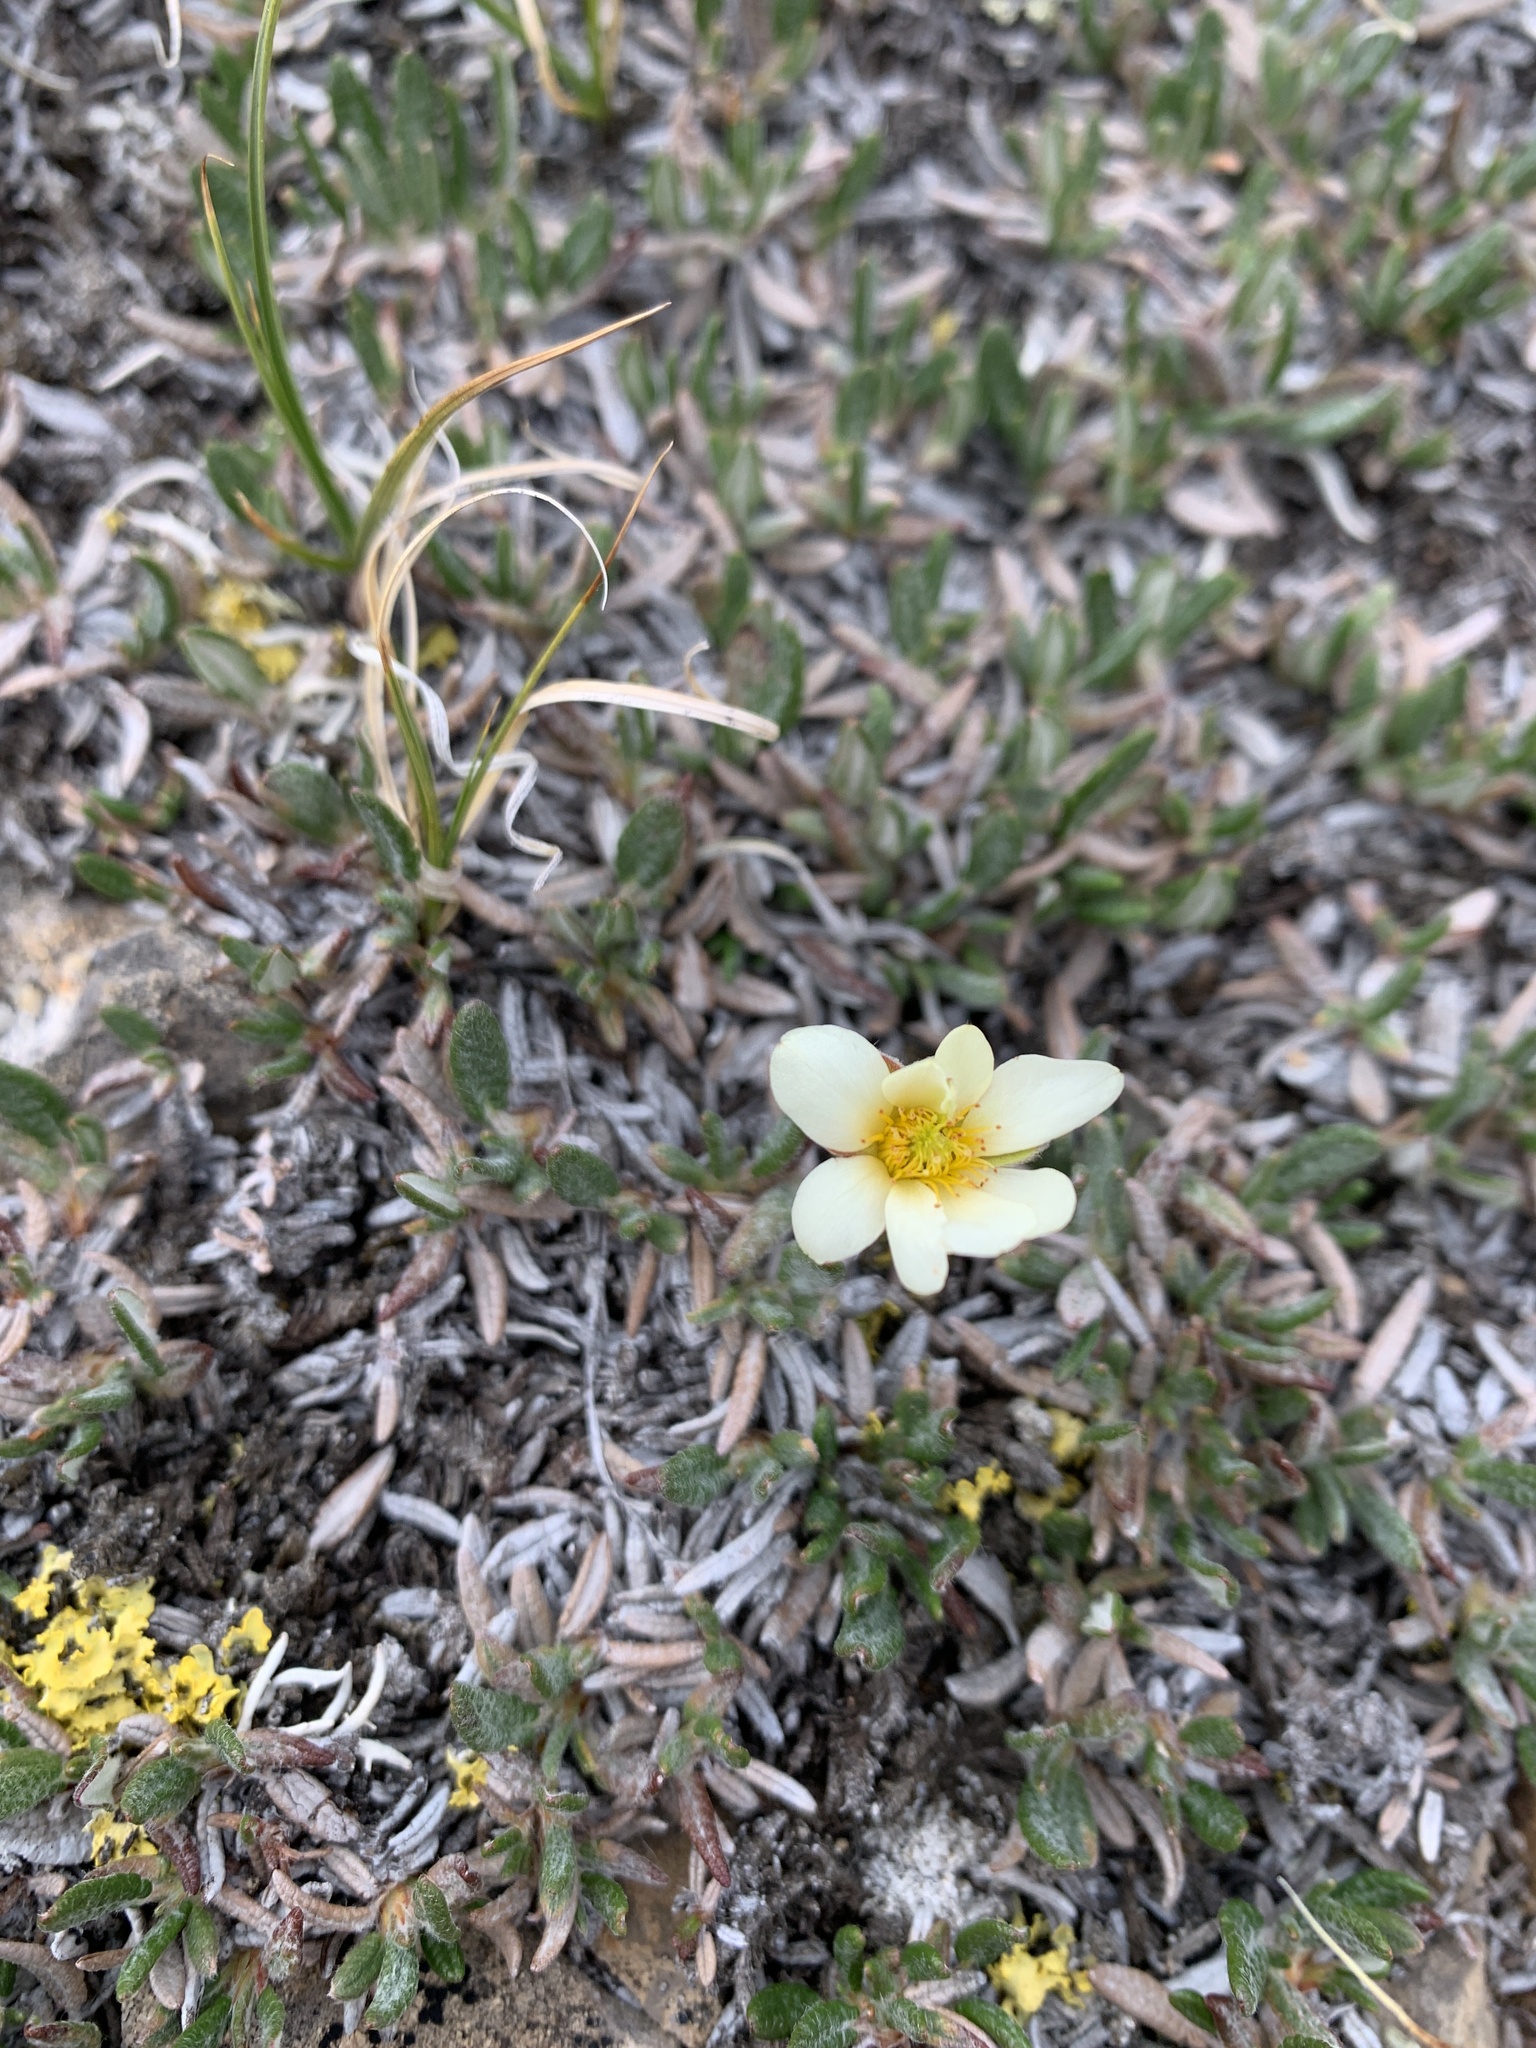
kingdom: Plantae
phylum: Tracheophyta
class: Magnoliopsida
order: Rosales
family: Rosaceae
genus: Dryas
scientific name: Dryas integrifolia
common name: Entire-leaved mountain avens
